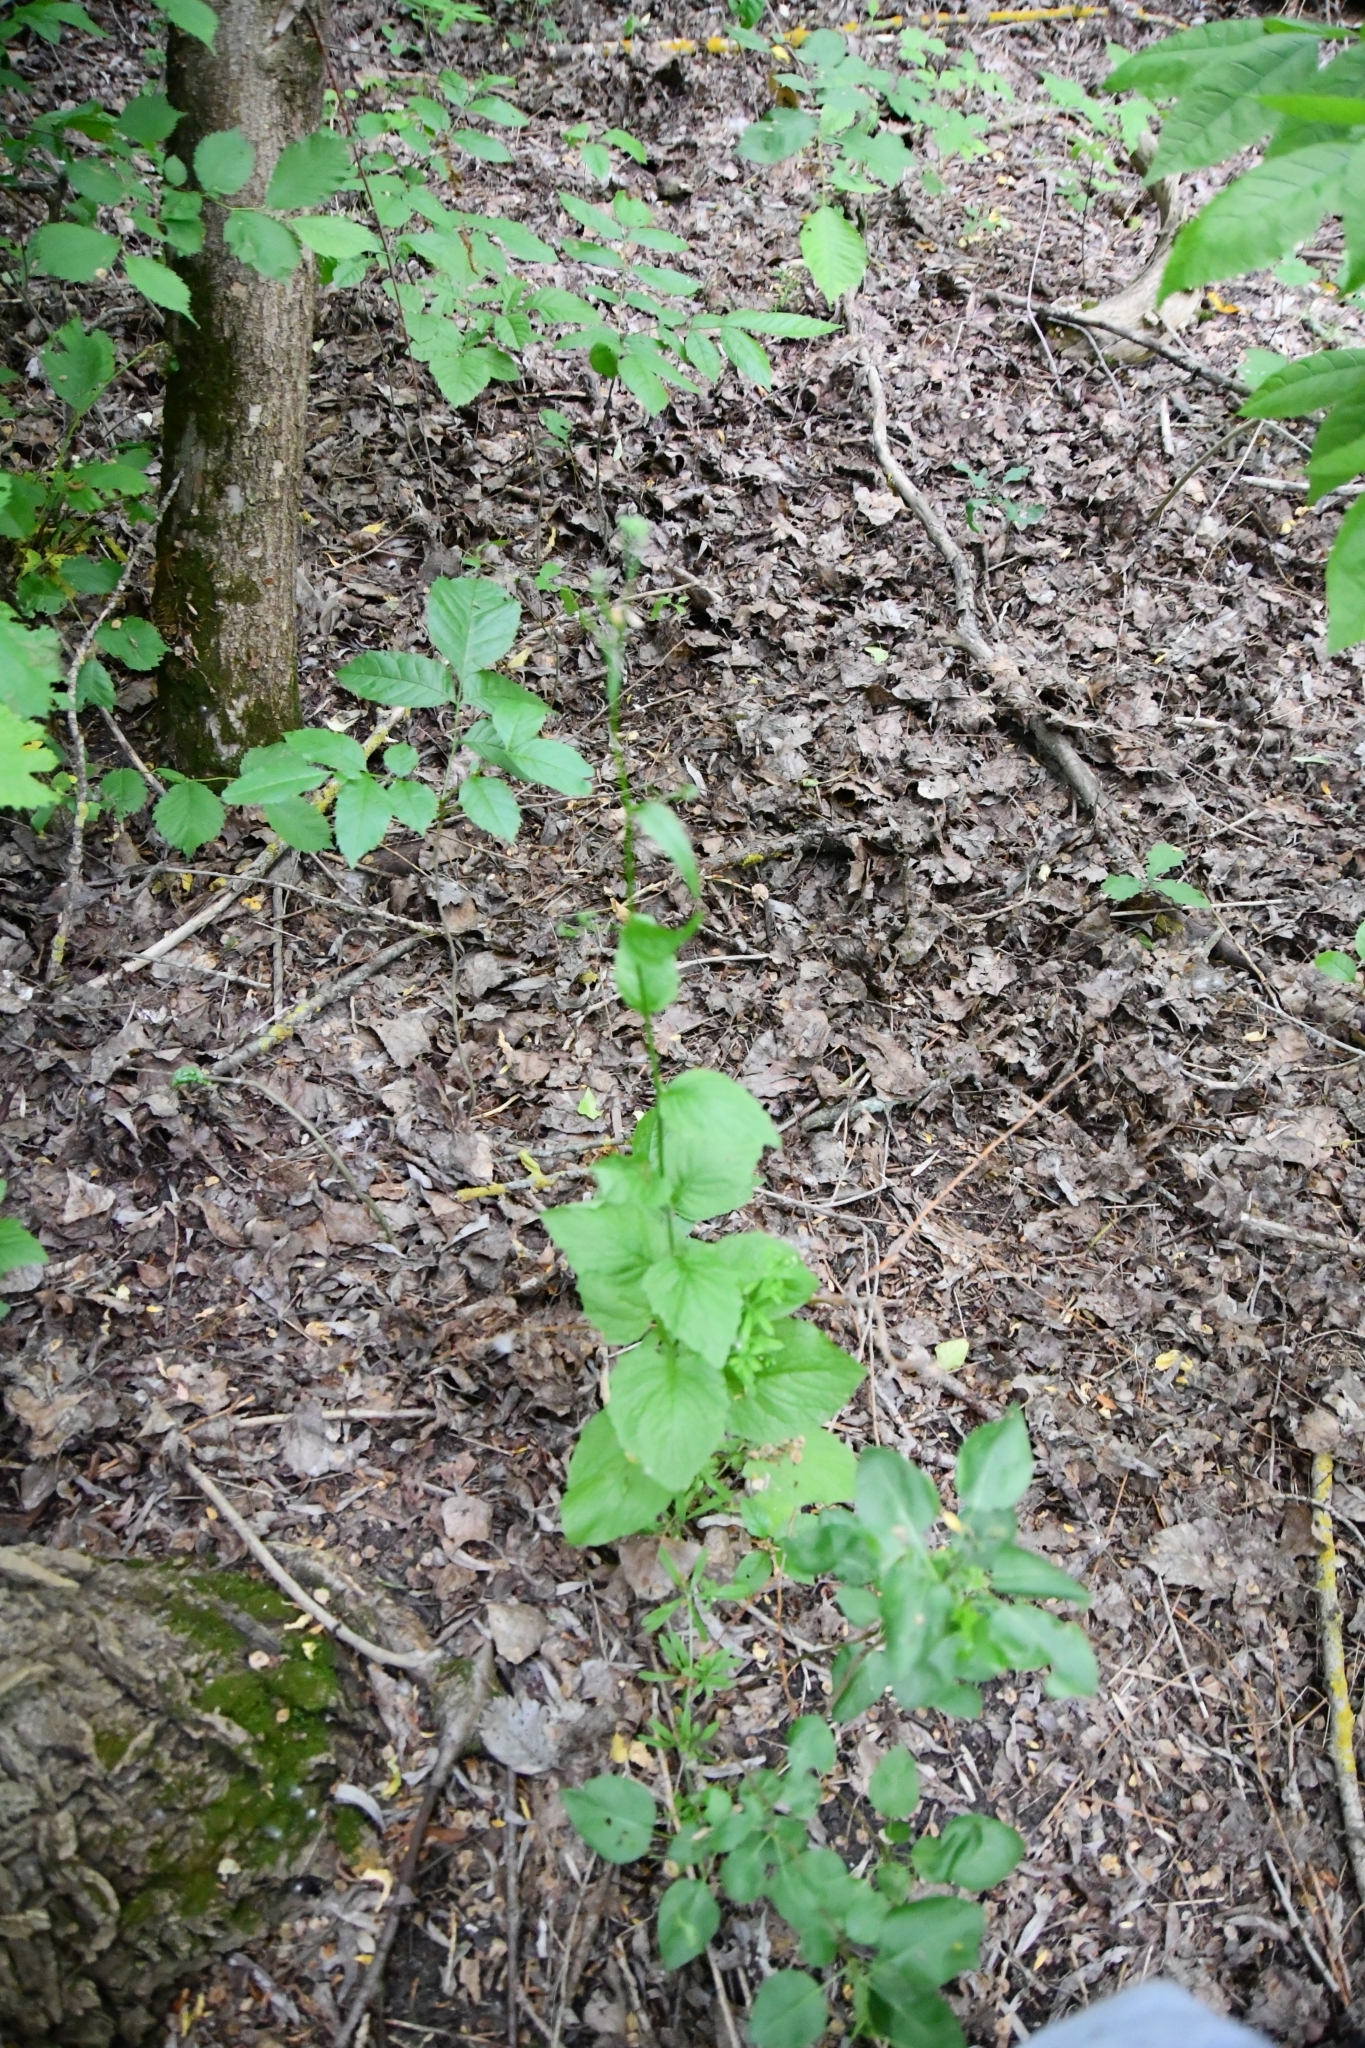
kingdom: Plantae
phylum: Tracheophyta
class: Magnoliopsida
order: Asterales
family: Asteraceae
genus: Lapsana
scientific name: Lapsana communis
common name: Nipplewort
